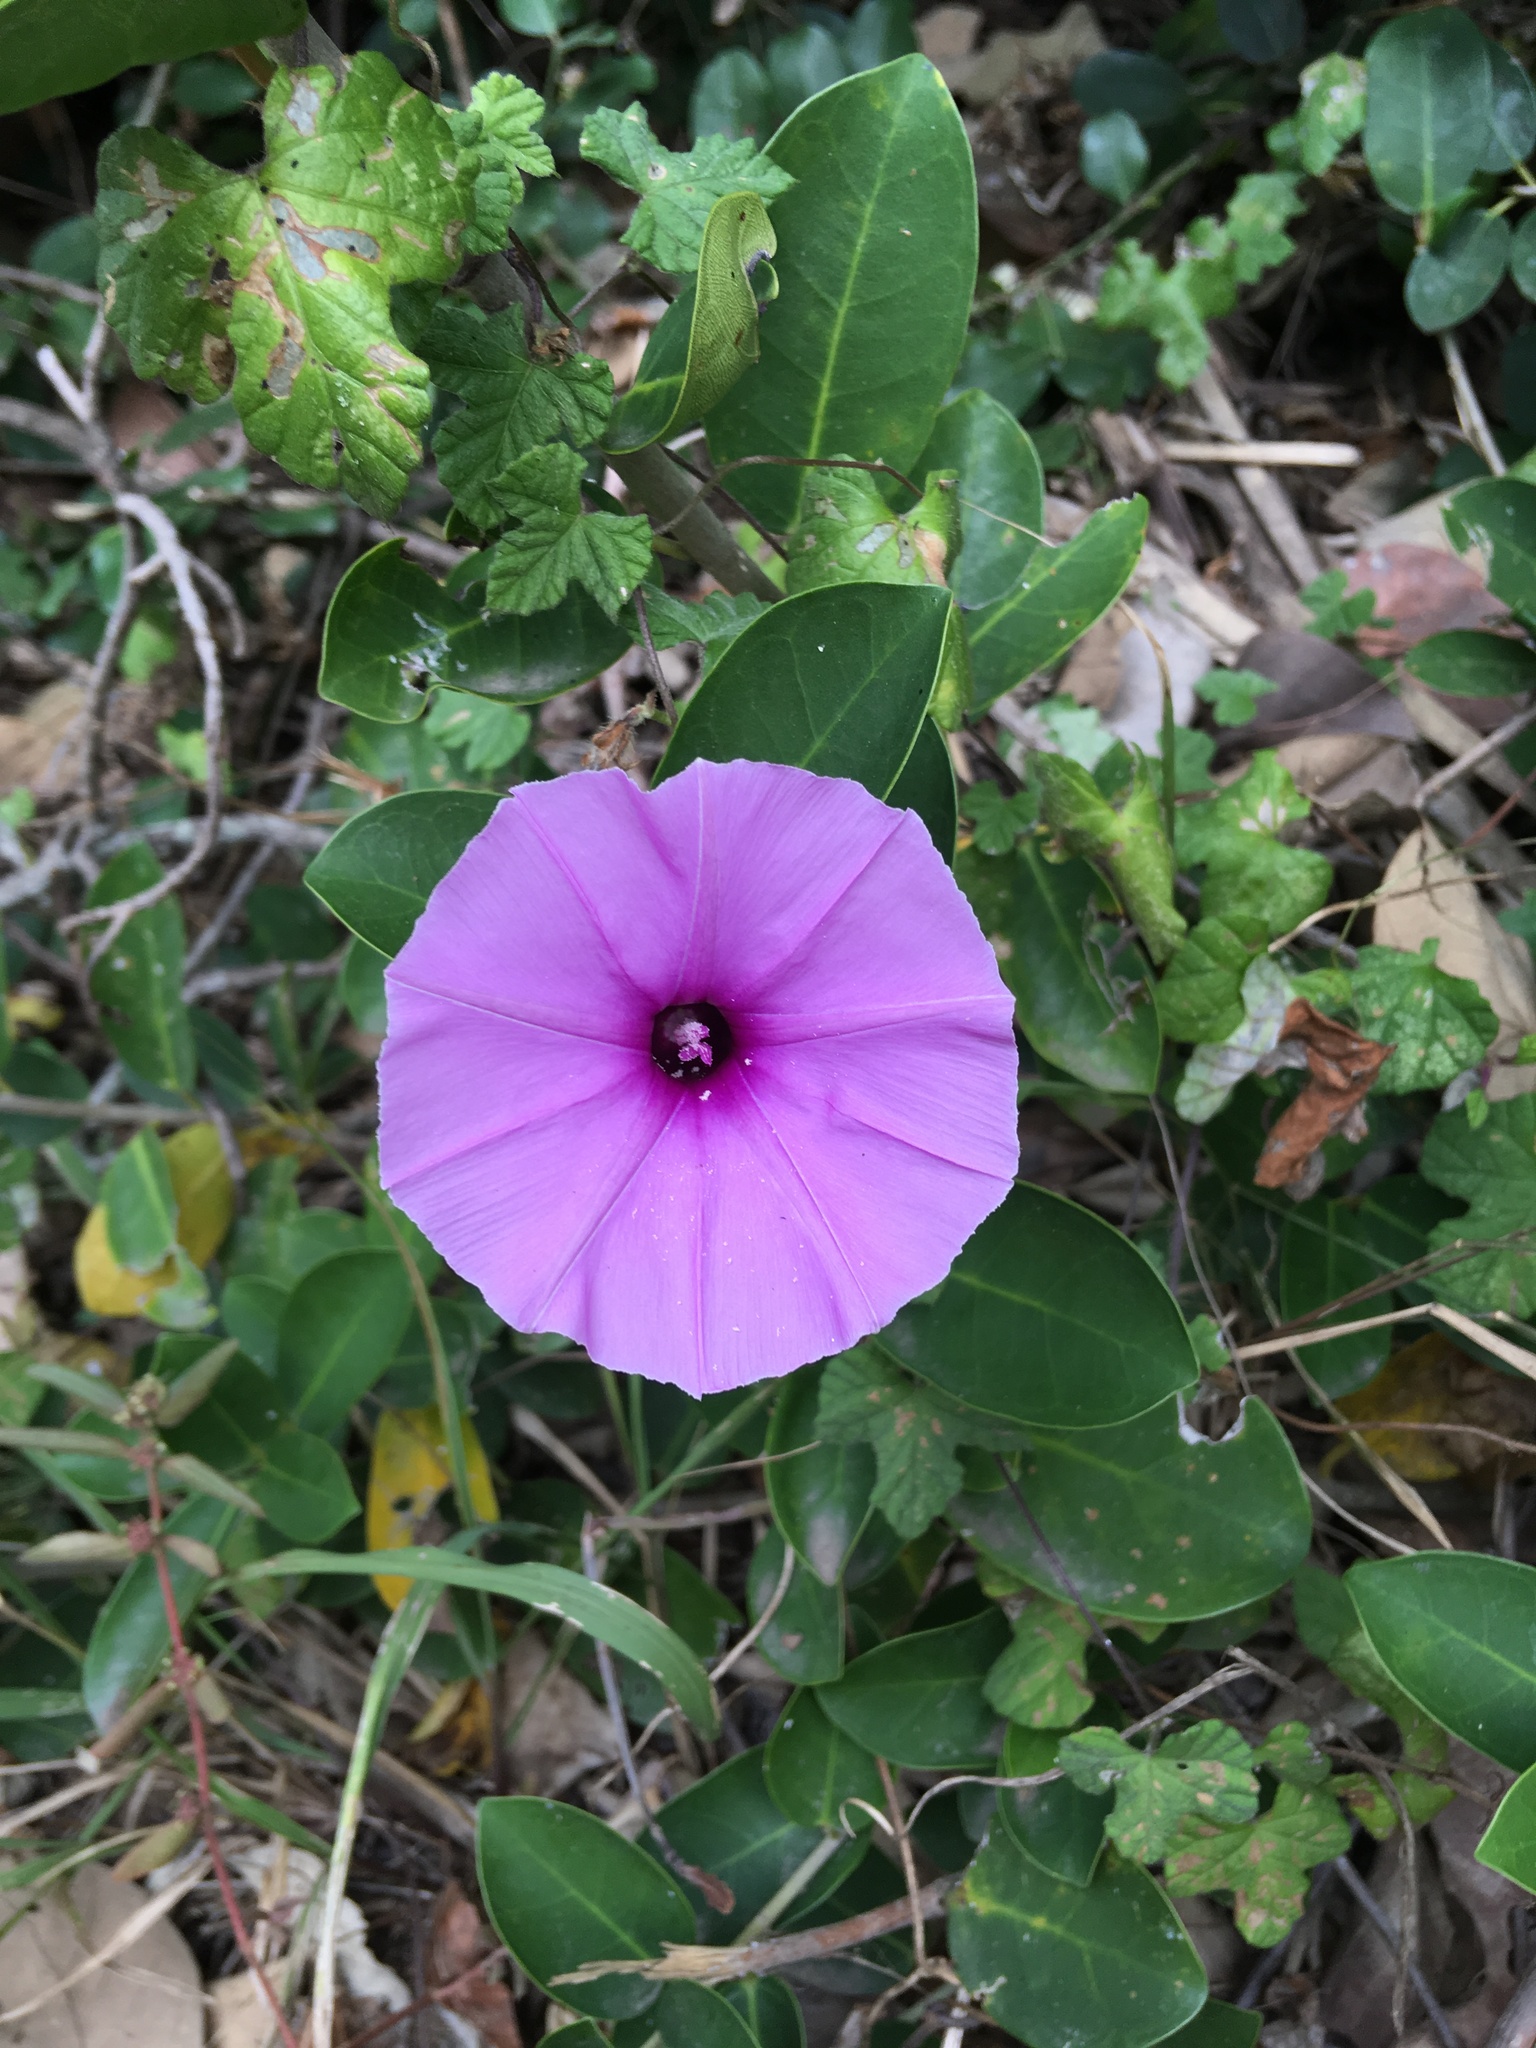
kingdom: Plantae
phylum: Tracheophyta
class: Magnoliopsida
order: Solanales
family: Convolvulaceae
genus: Ipomoea
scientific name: Ipomoea ficifolia
